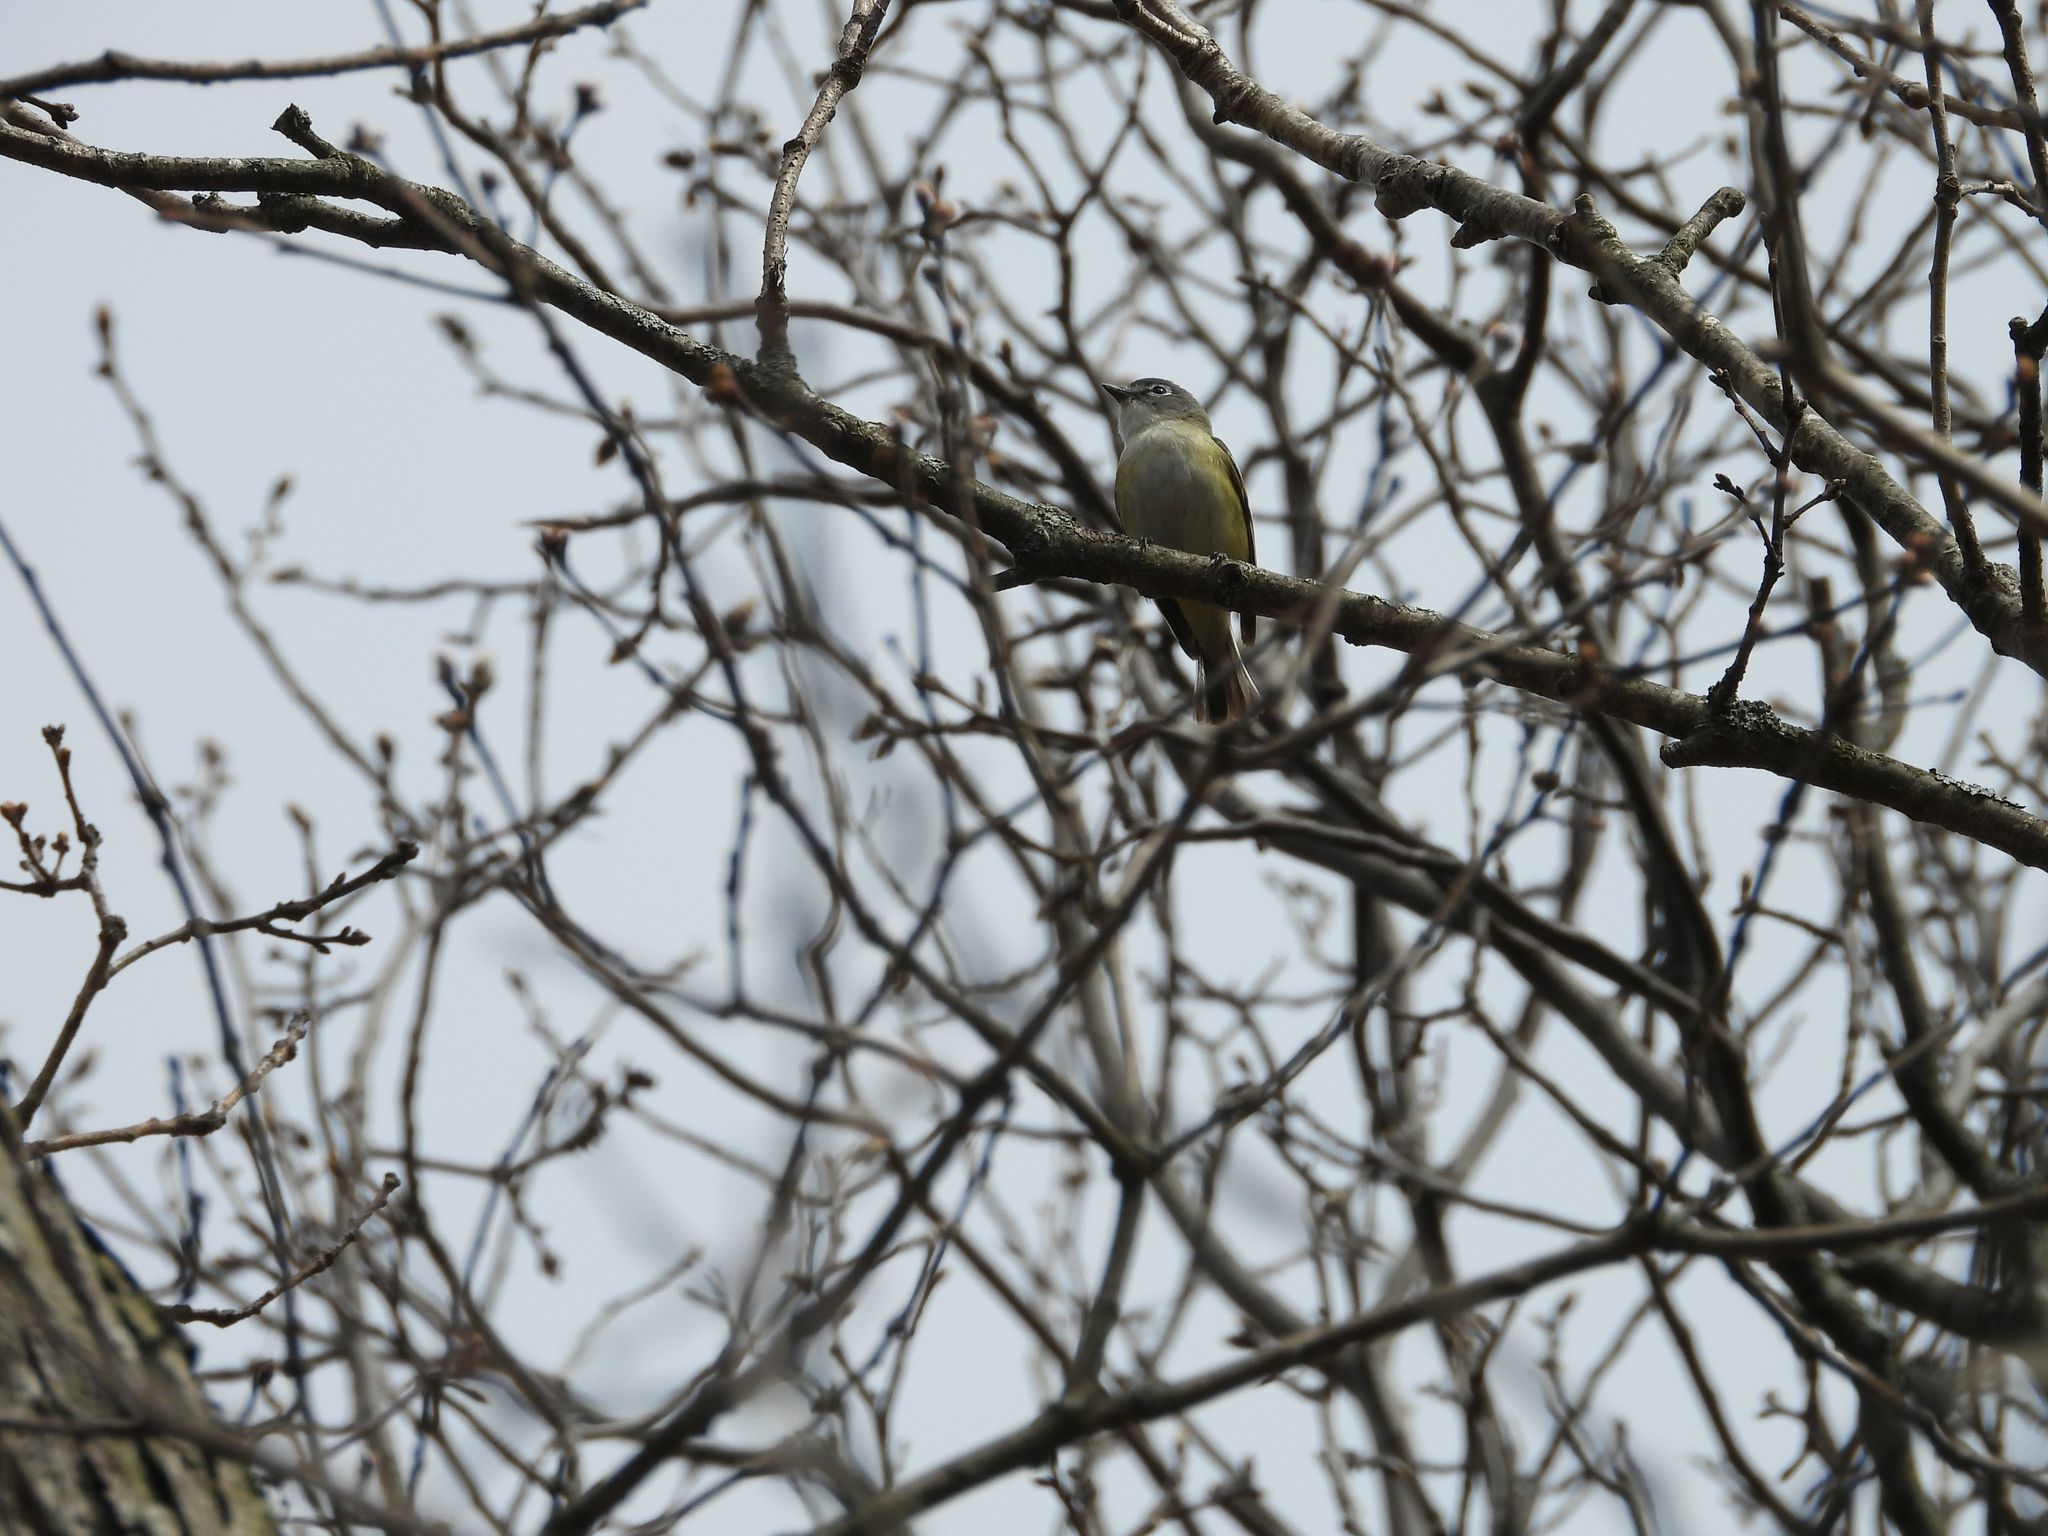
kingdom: Animalia
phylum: Chordata
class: Aves
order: Passeriformes
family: Vireonidae
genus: Vireo
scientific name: Vireo solitarius
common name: Blue-headed vireo
